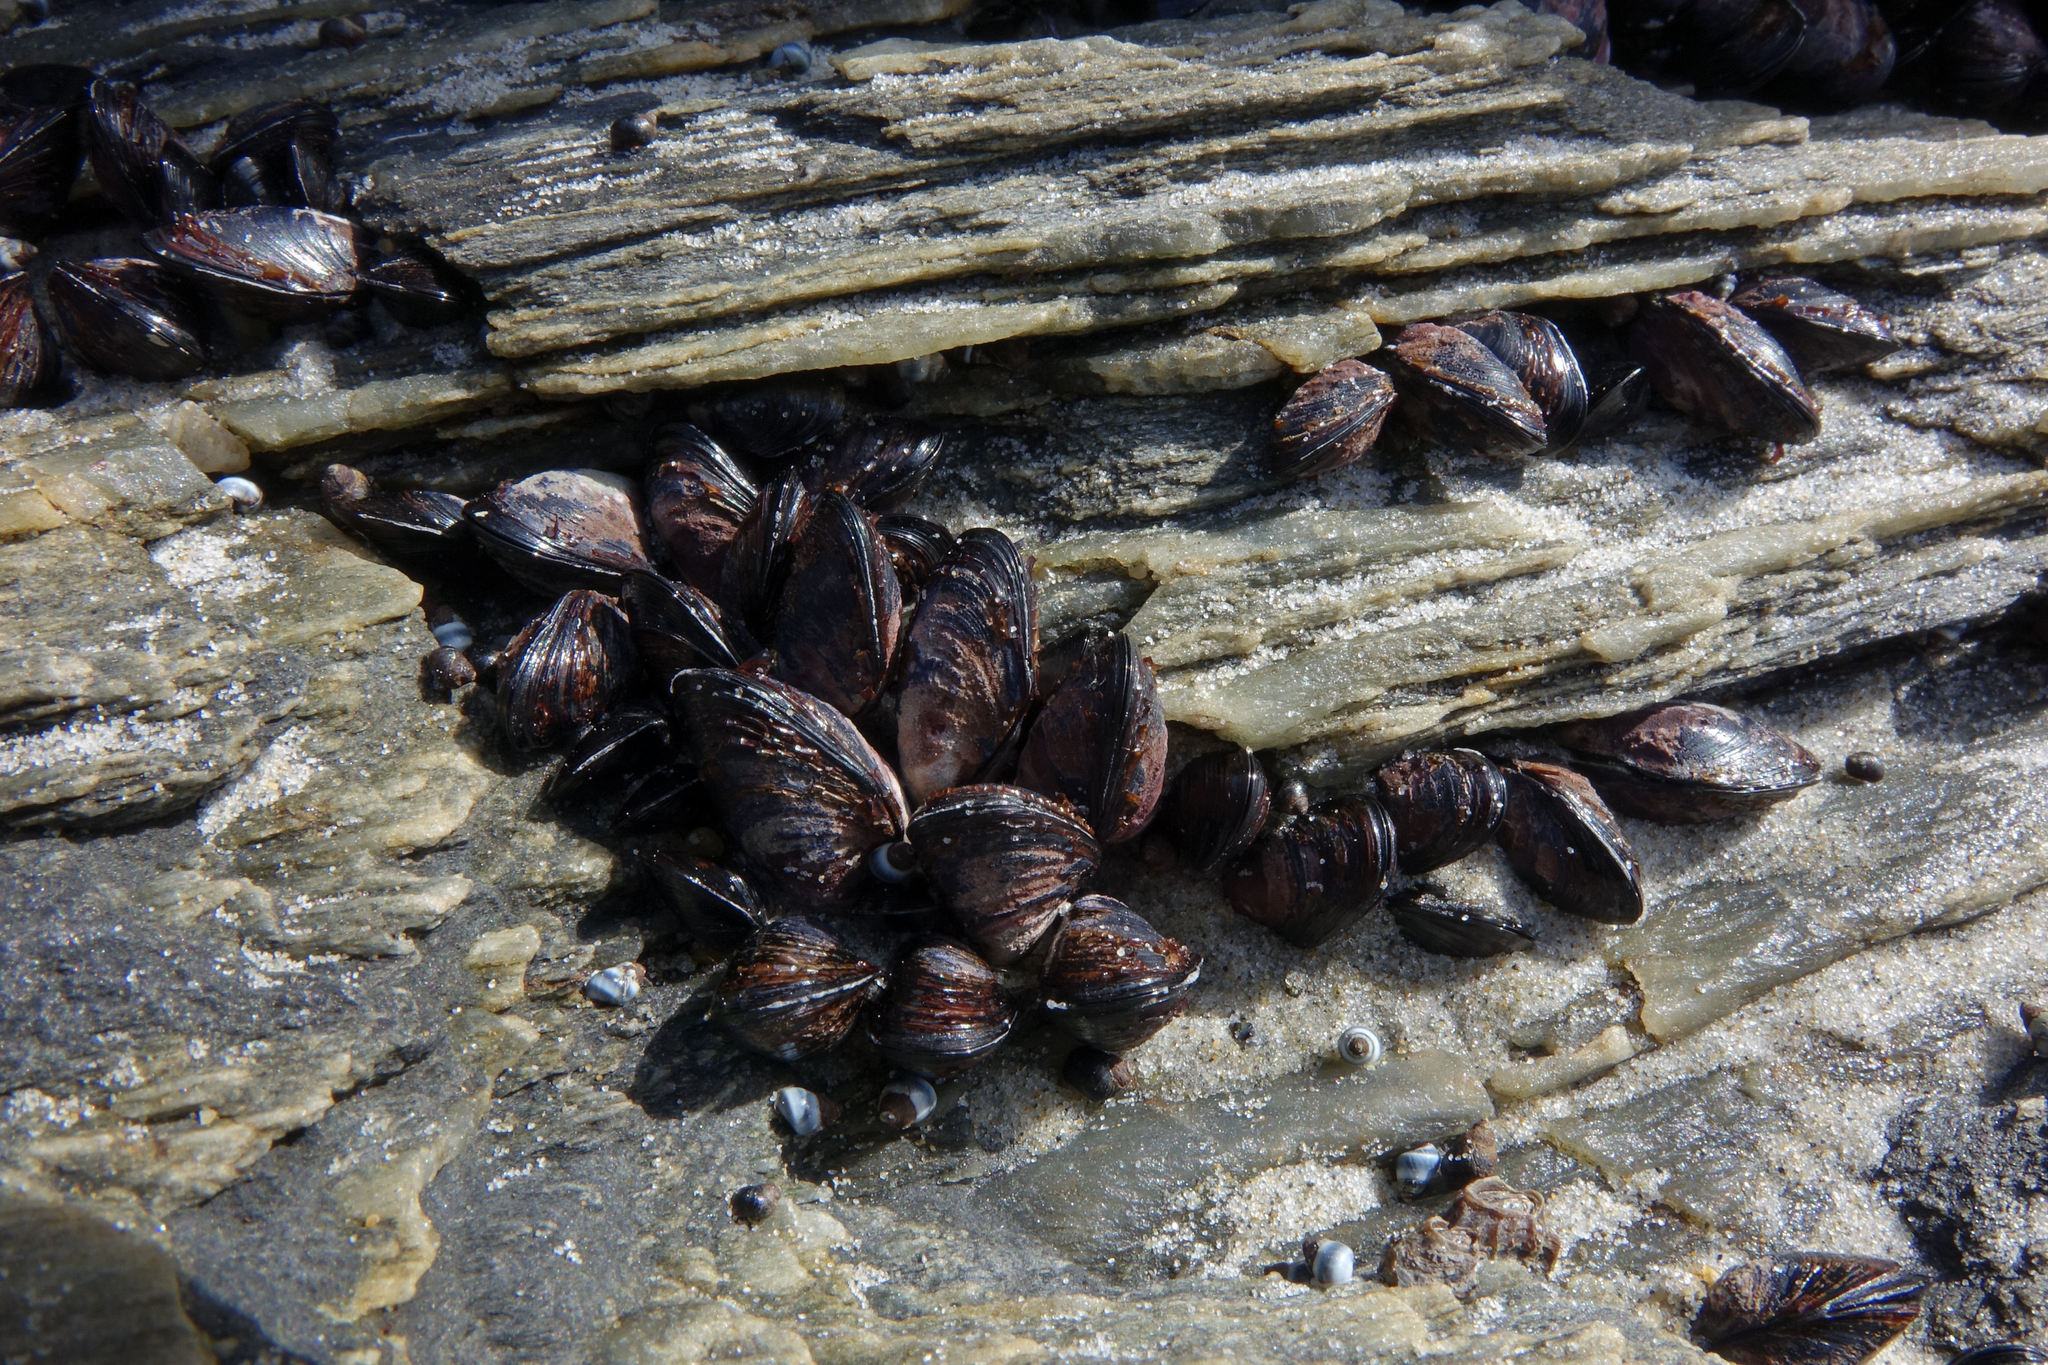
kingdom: Animalia
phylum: Mollusca
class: Bivalvia
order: Mytilida
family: Mytilidae
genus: Xenostrobus
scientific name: Xenostrobus neozelanicus
